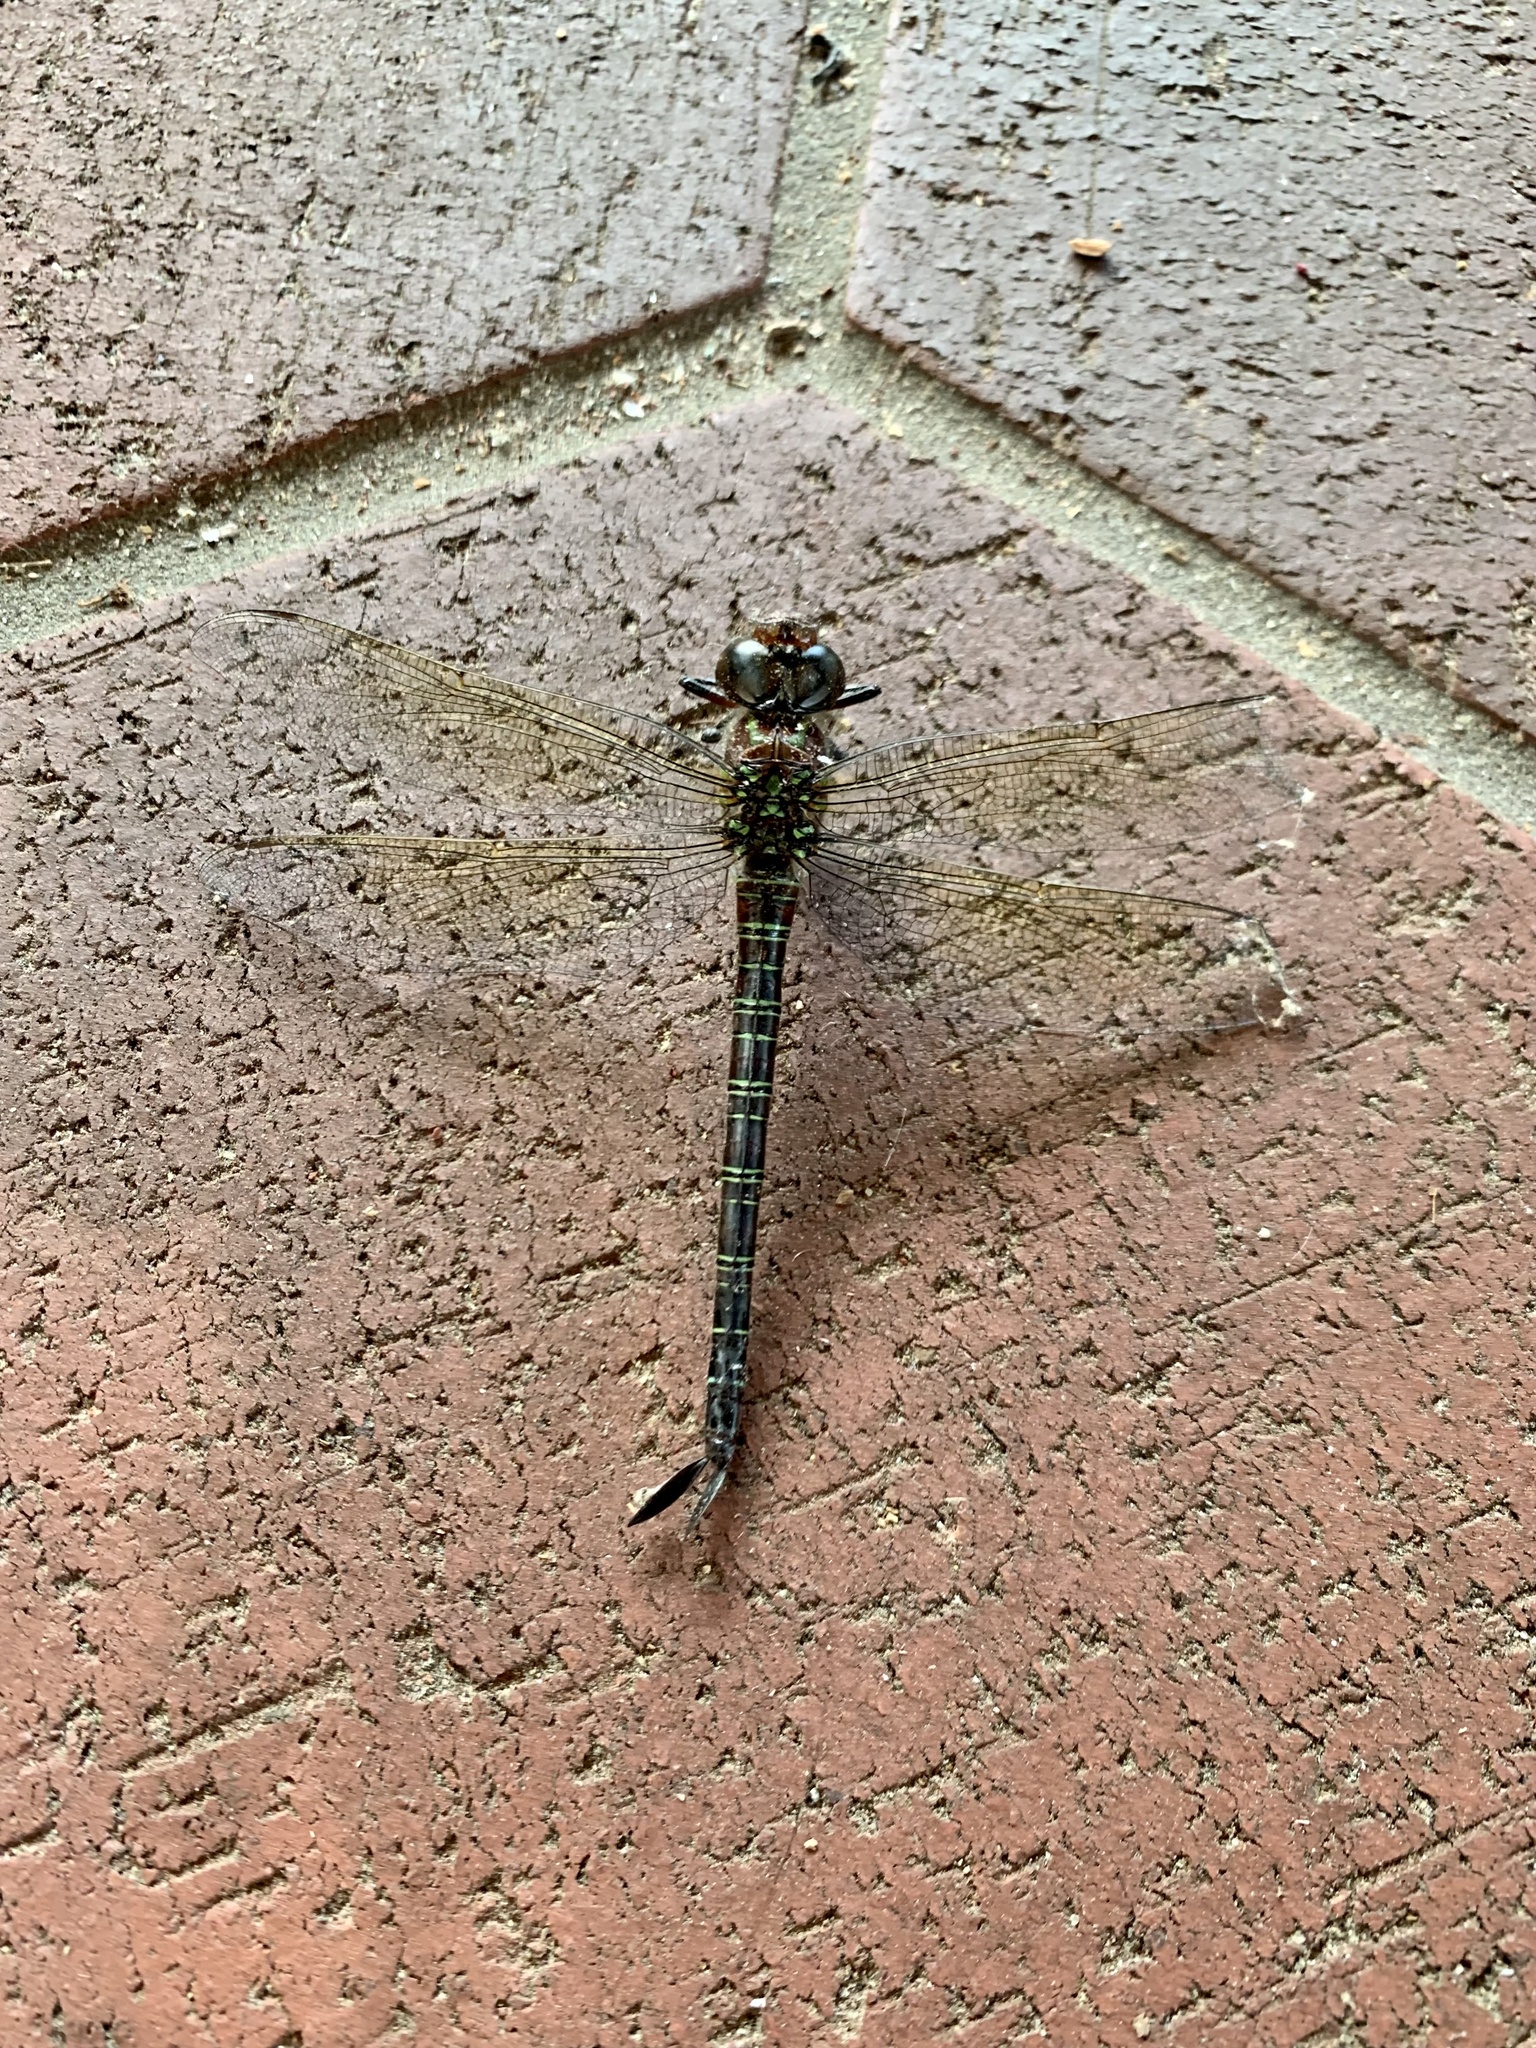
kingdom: Animalia
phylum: Arthropoda
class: Insecta
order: Odonata
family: Aeshnidae
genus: Epiaeschna
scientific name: Epiaeschna heros
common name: Swamp darner
